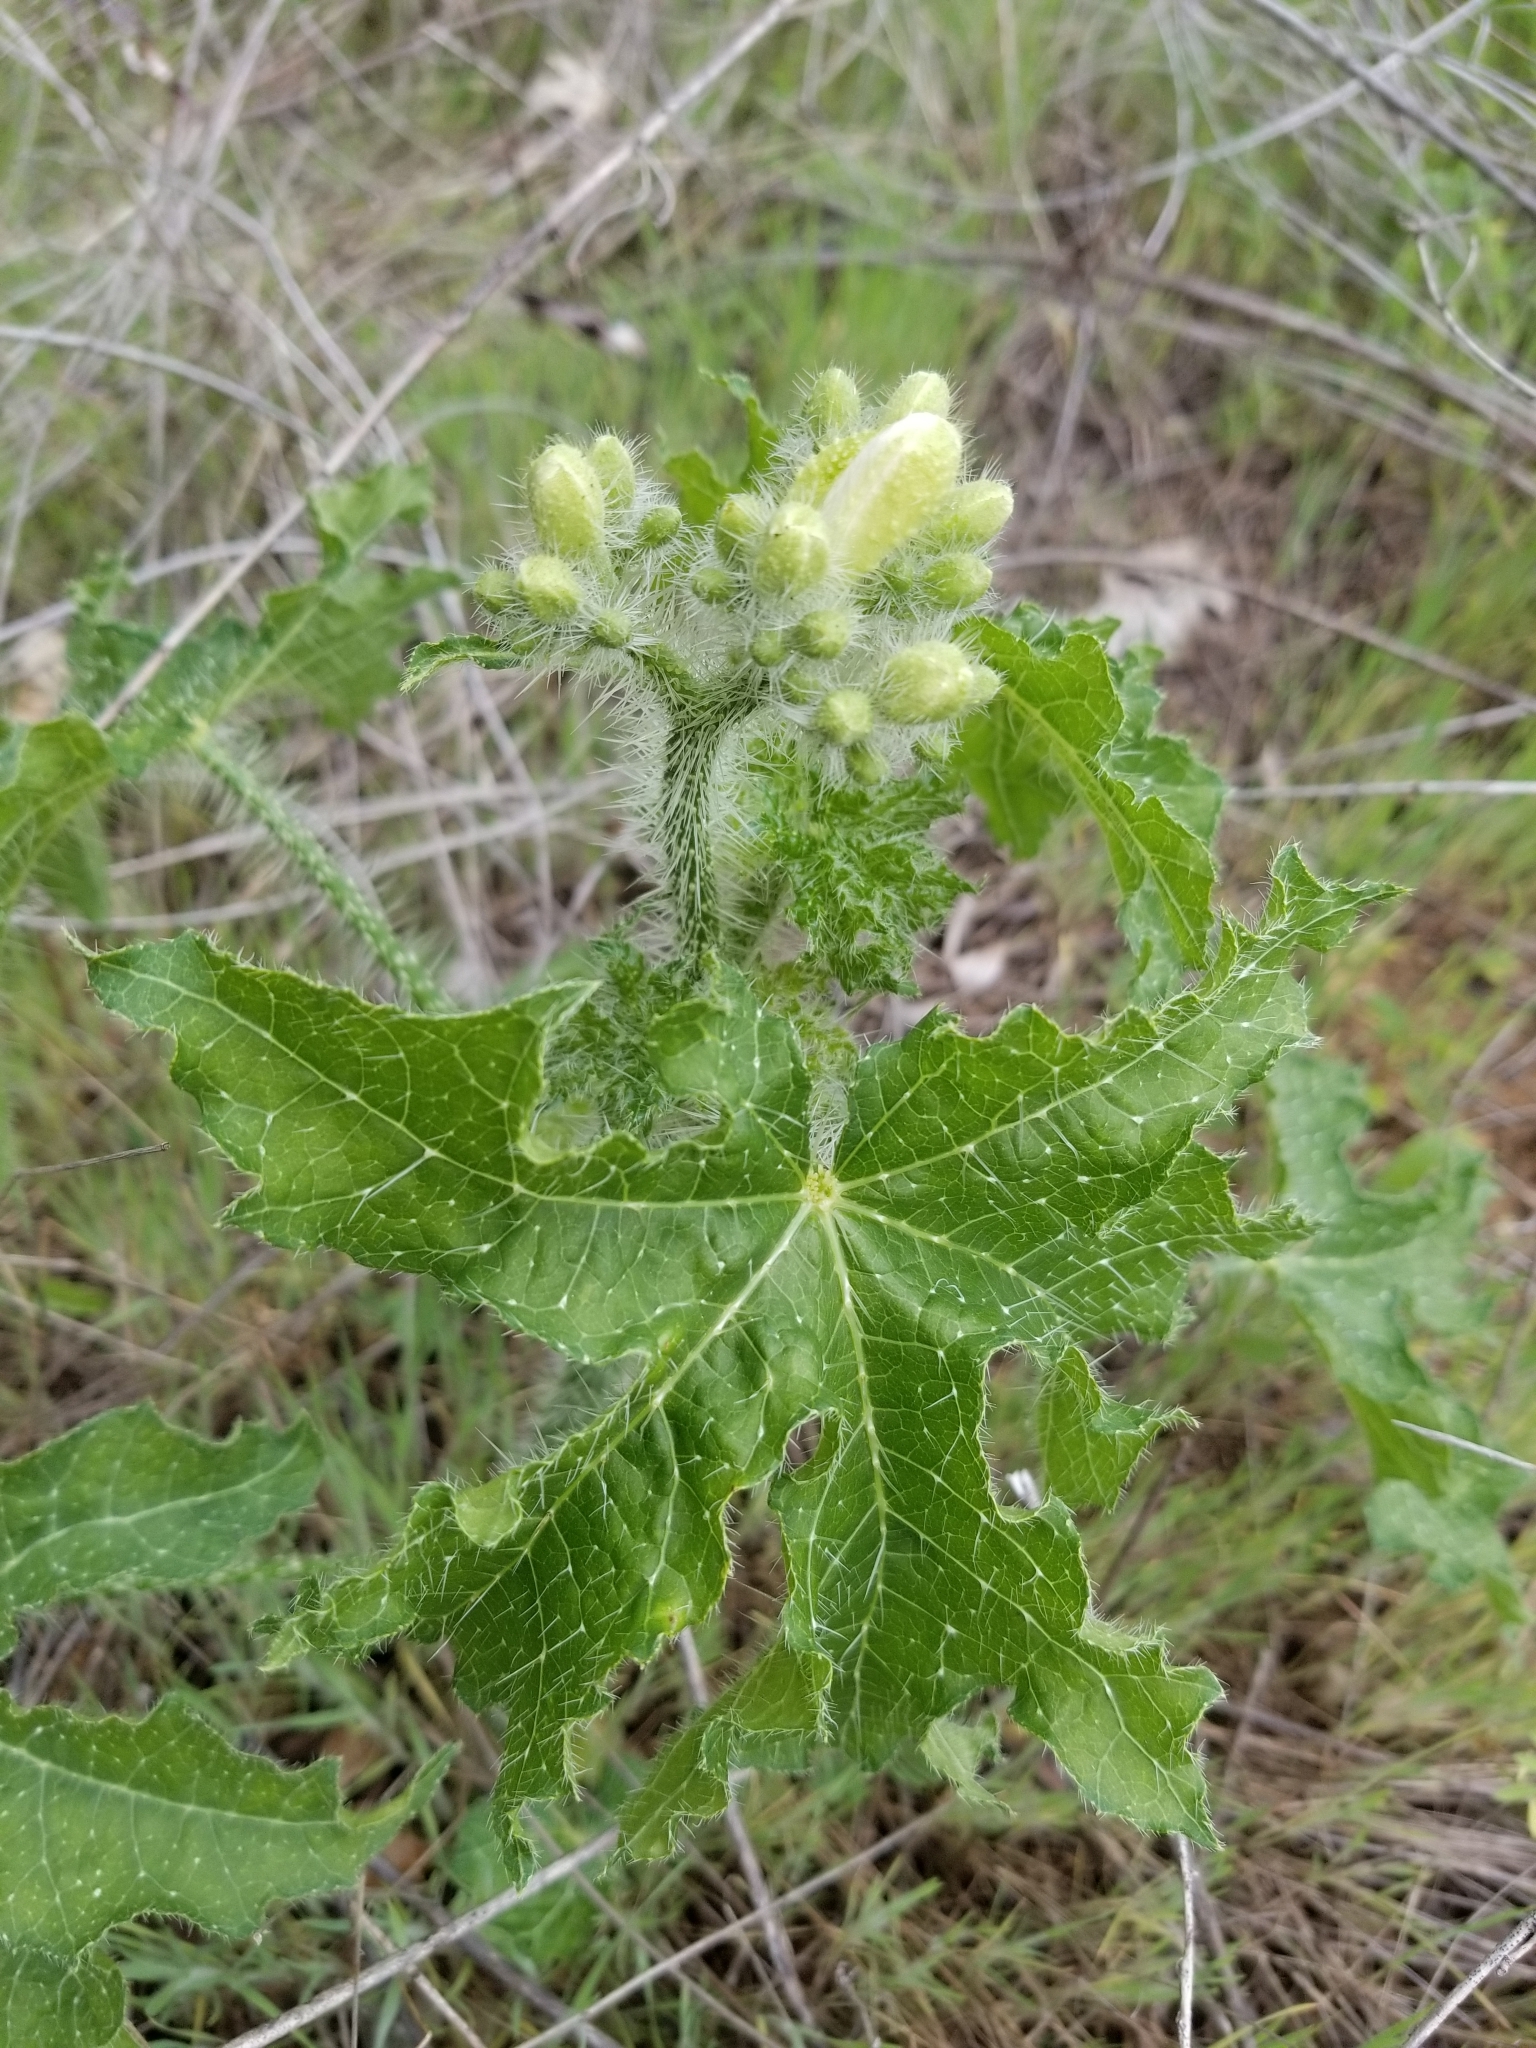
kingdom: Plantae
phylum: Tracheophyta
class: Magnoliopsida
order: Malpighiales
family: Euphorbiaceae
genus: Cnidoscolus
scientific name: Cnidoscolus texanus
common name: Texas bull-nettle
